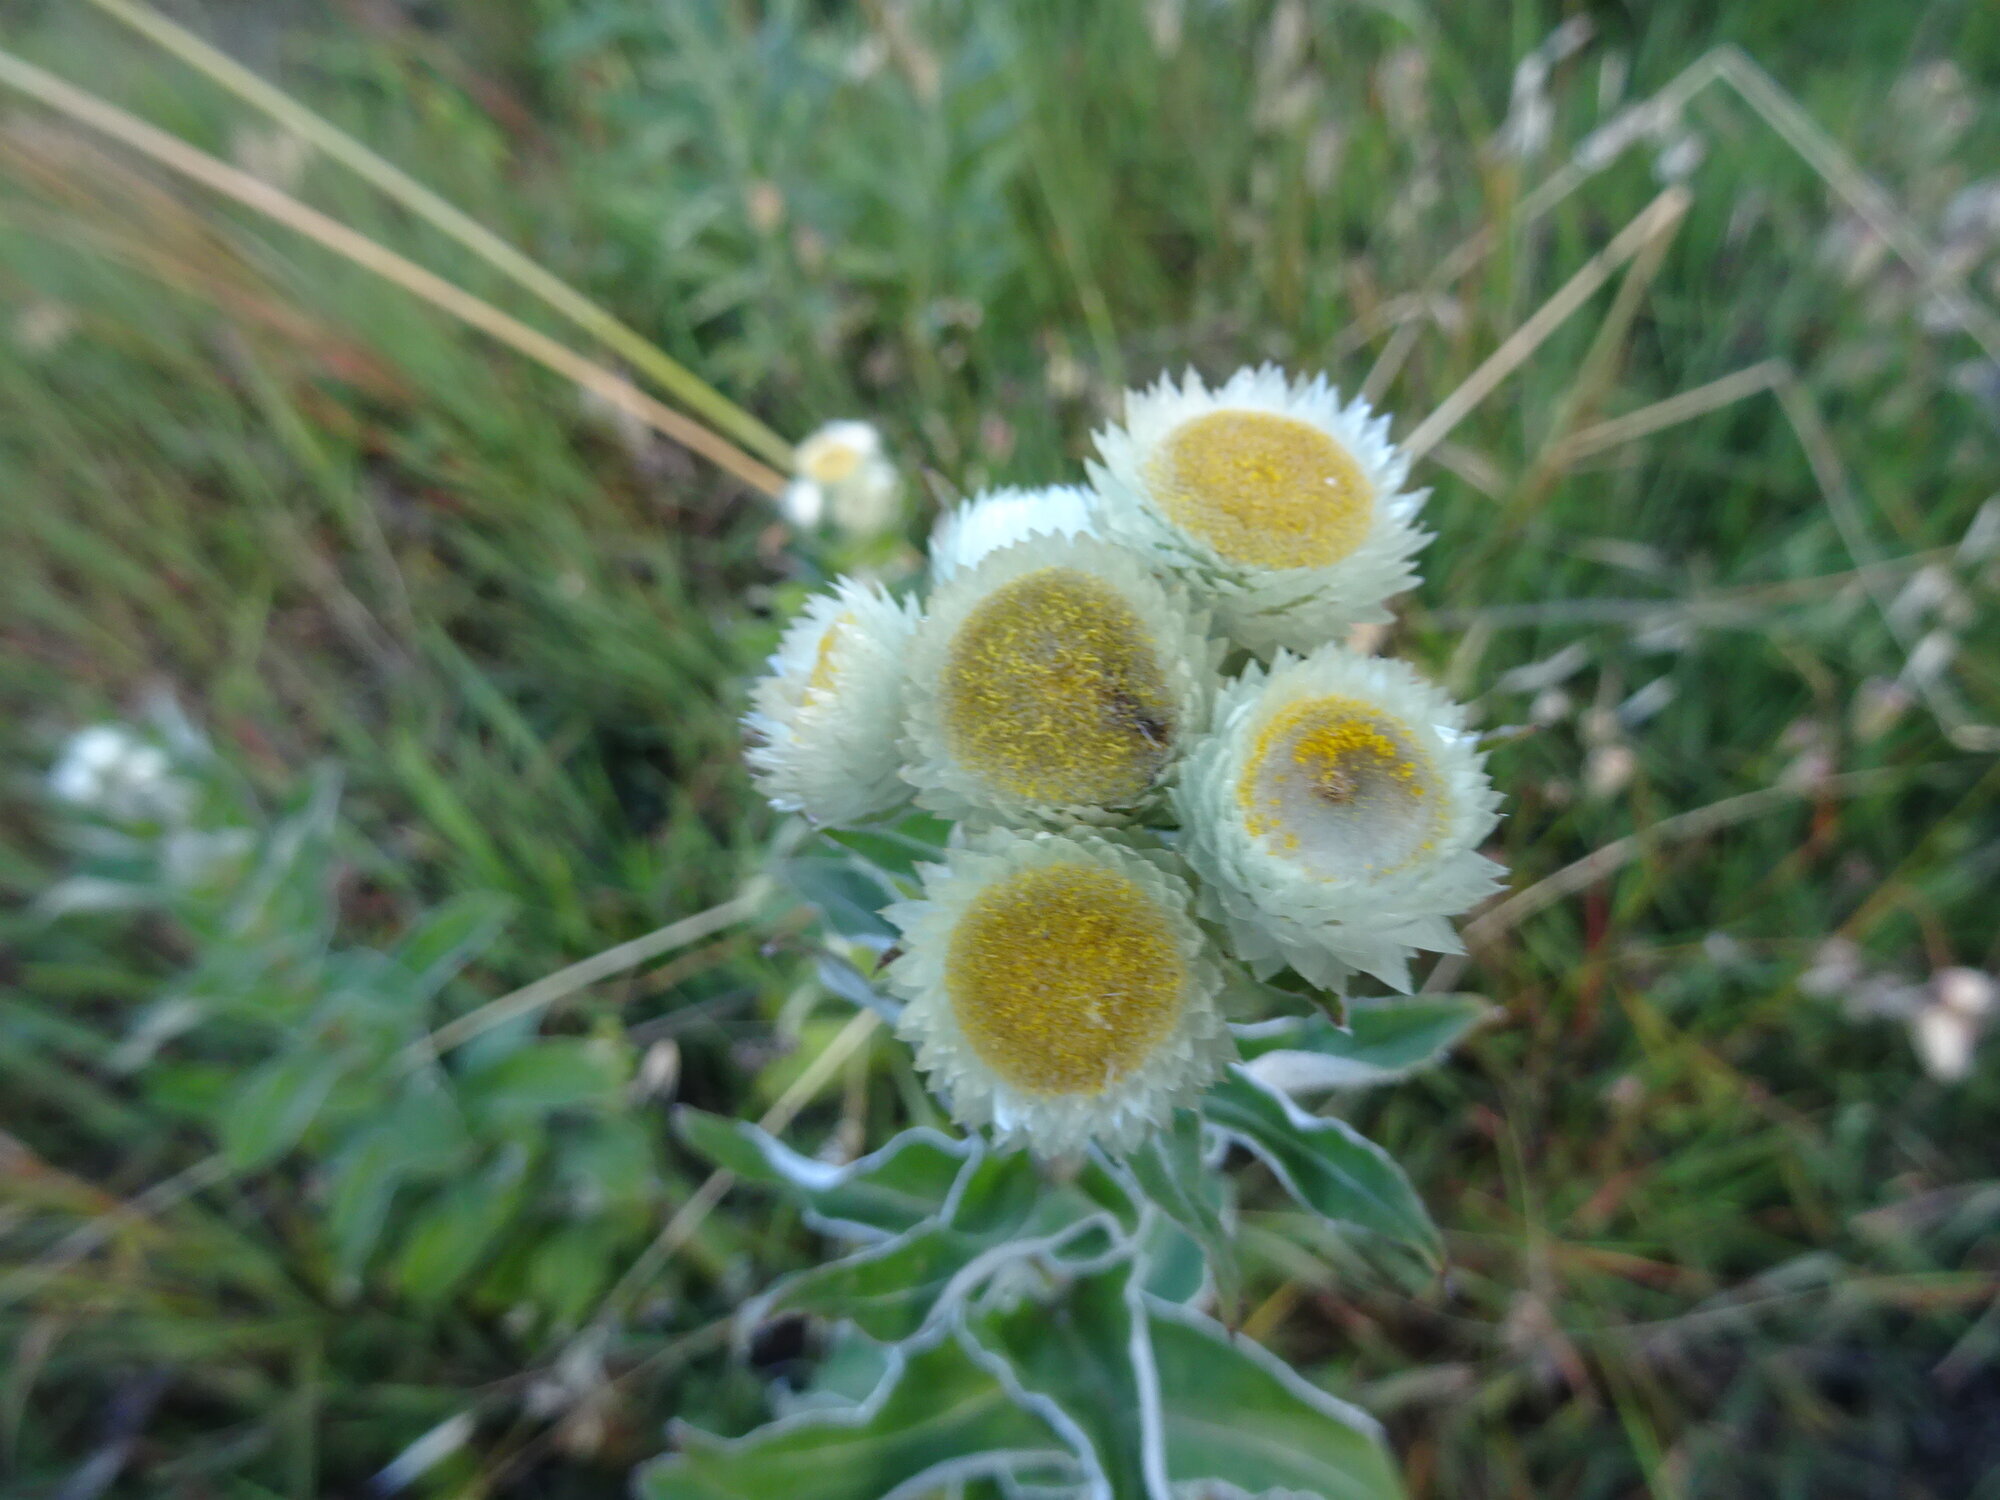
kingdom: Plantae
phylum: Tracheophyta
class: Magnoliopsida
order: Asterales
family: Asteraceae
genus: Helichrysum
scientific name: Helichrysum foetidum
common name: Stinking everlasting
